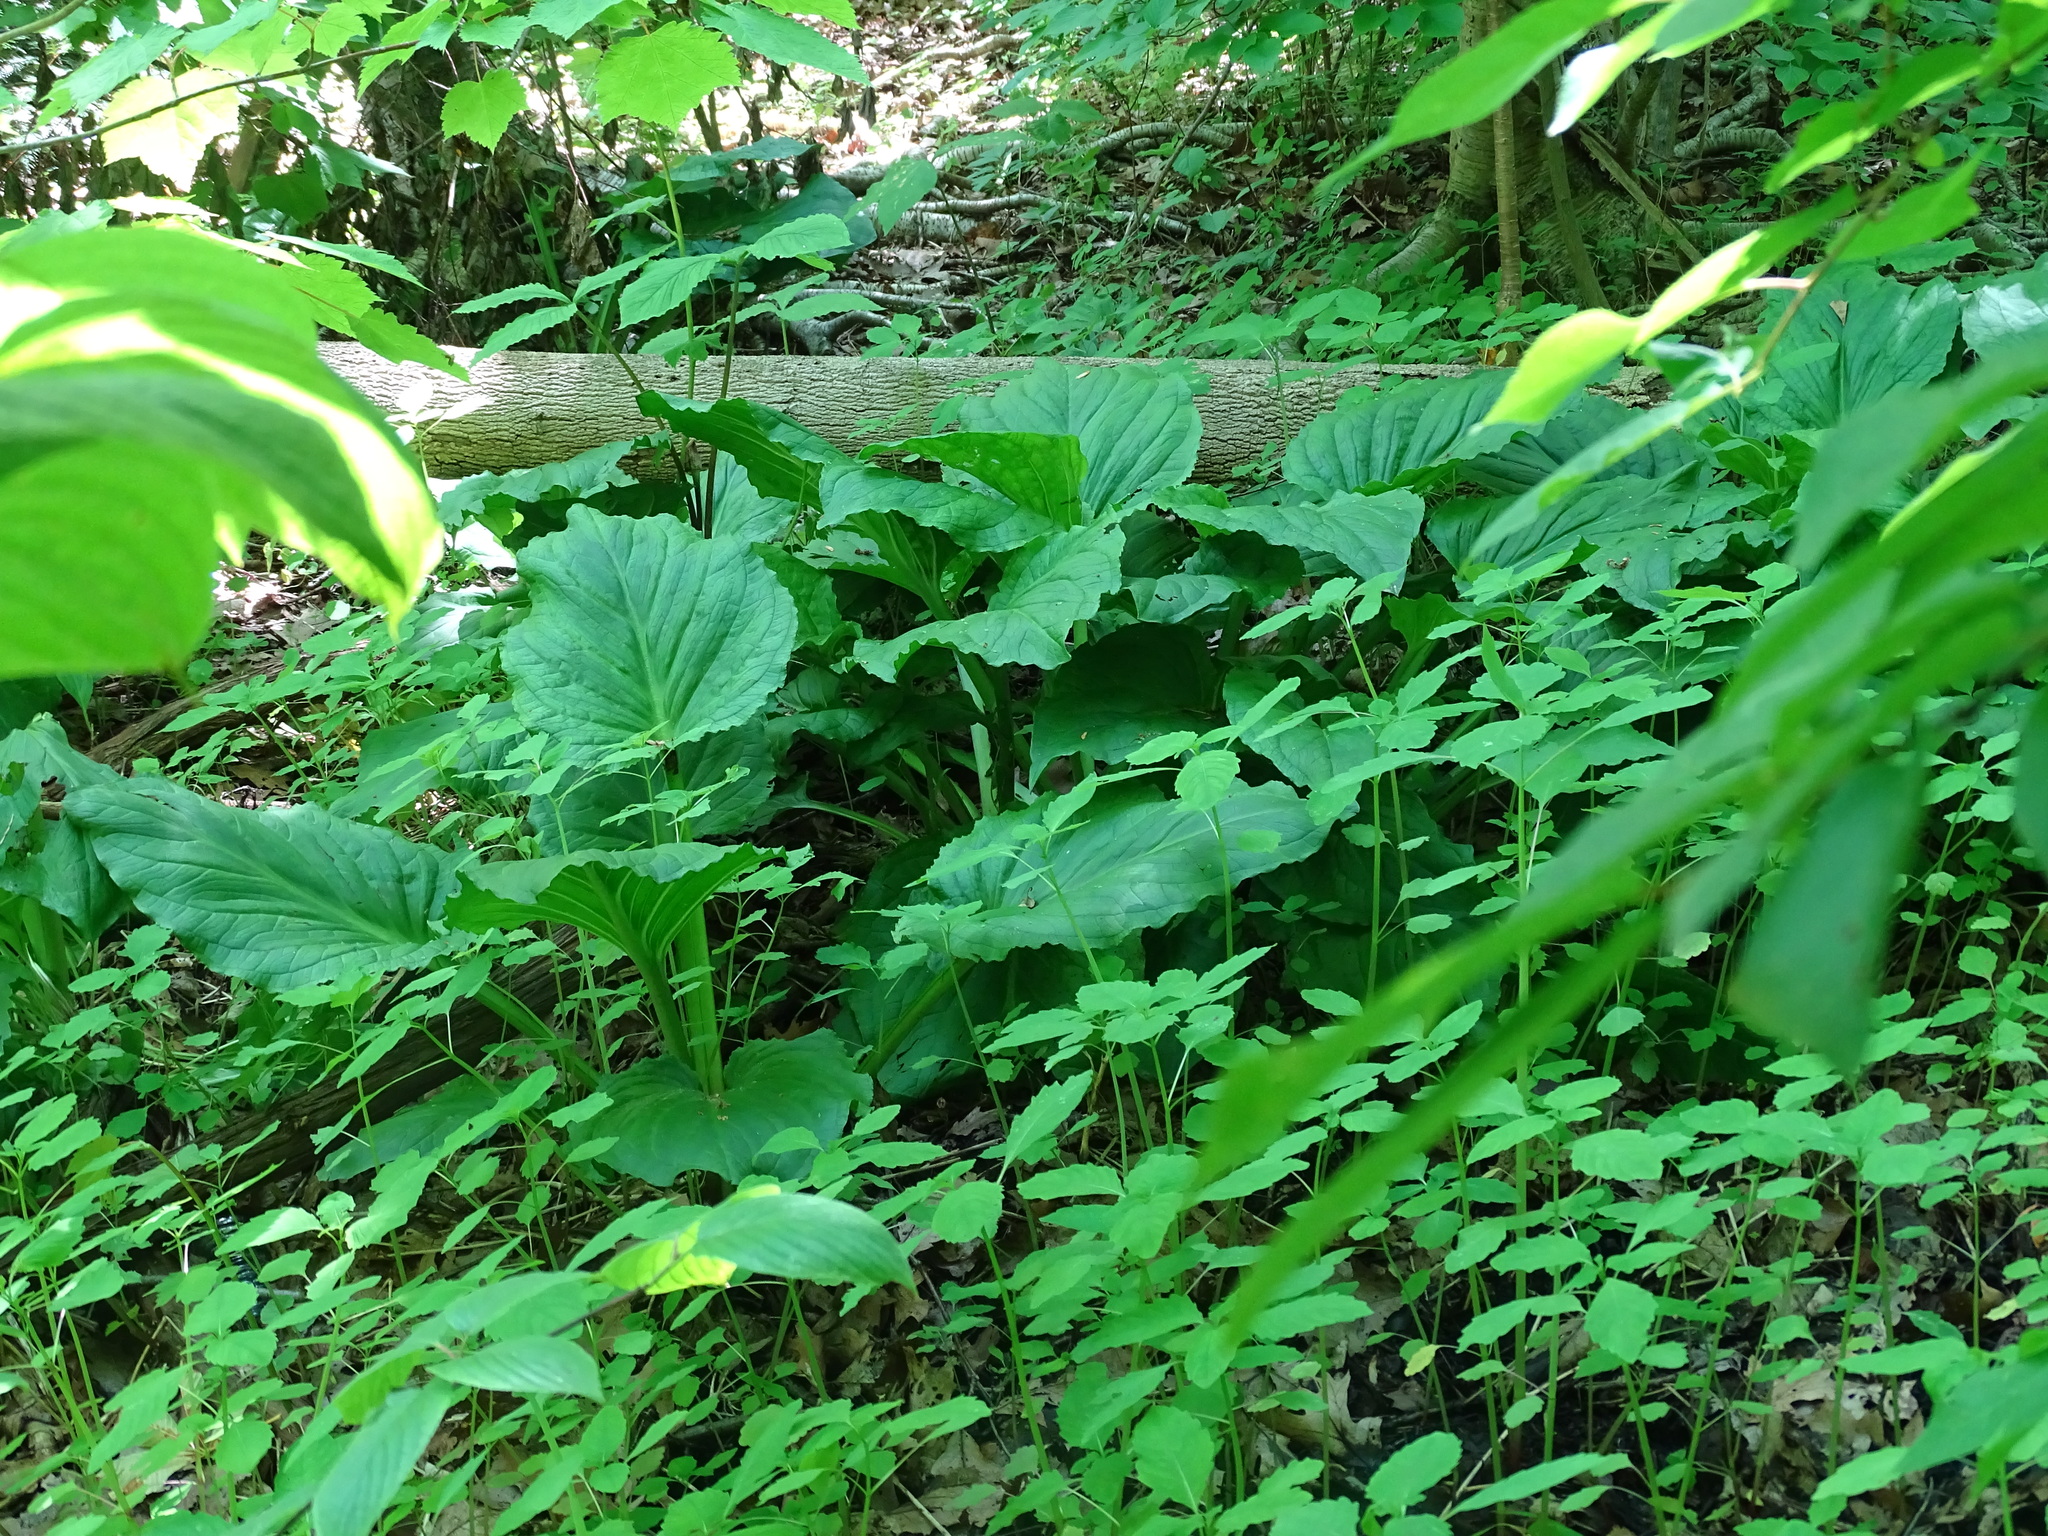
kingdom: Plantae
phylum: Tracheophyta
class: Liliopsida
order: Alismatales
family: Araceae
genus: Symplocarpus
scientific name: Symplocarpus foetidus
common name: Eastern skunk cabbage
